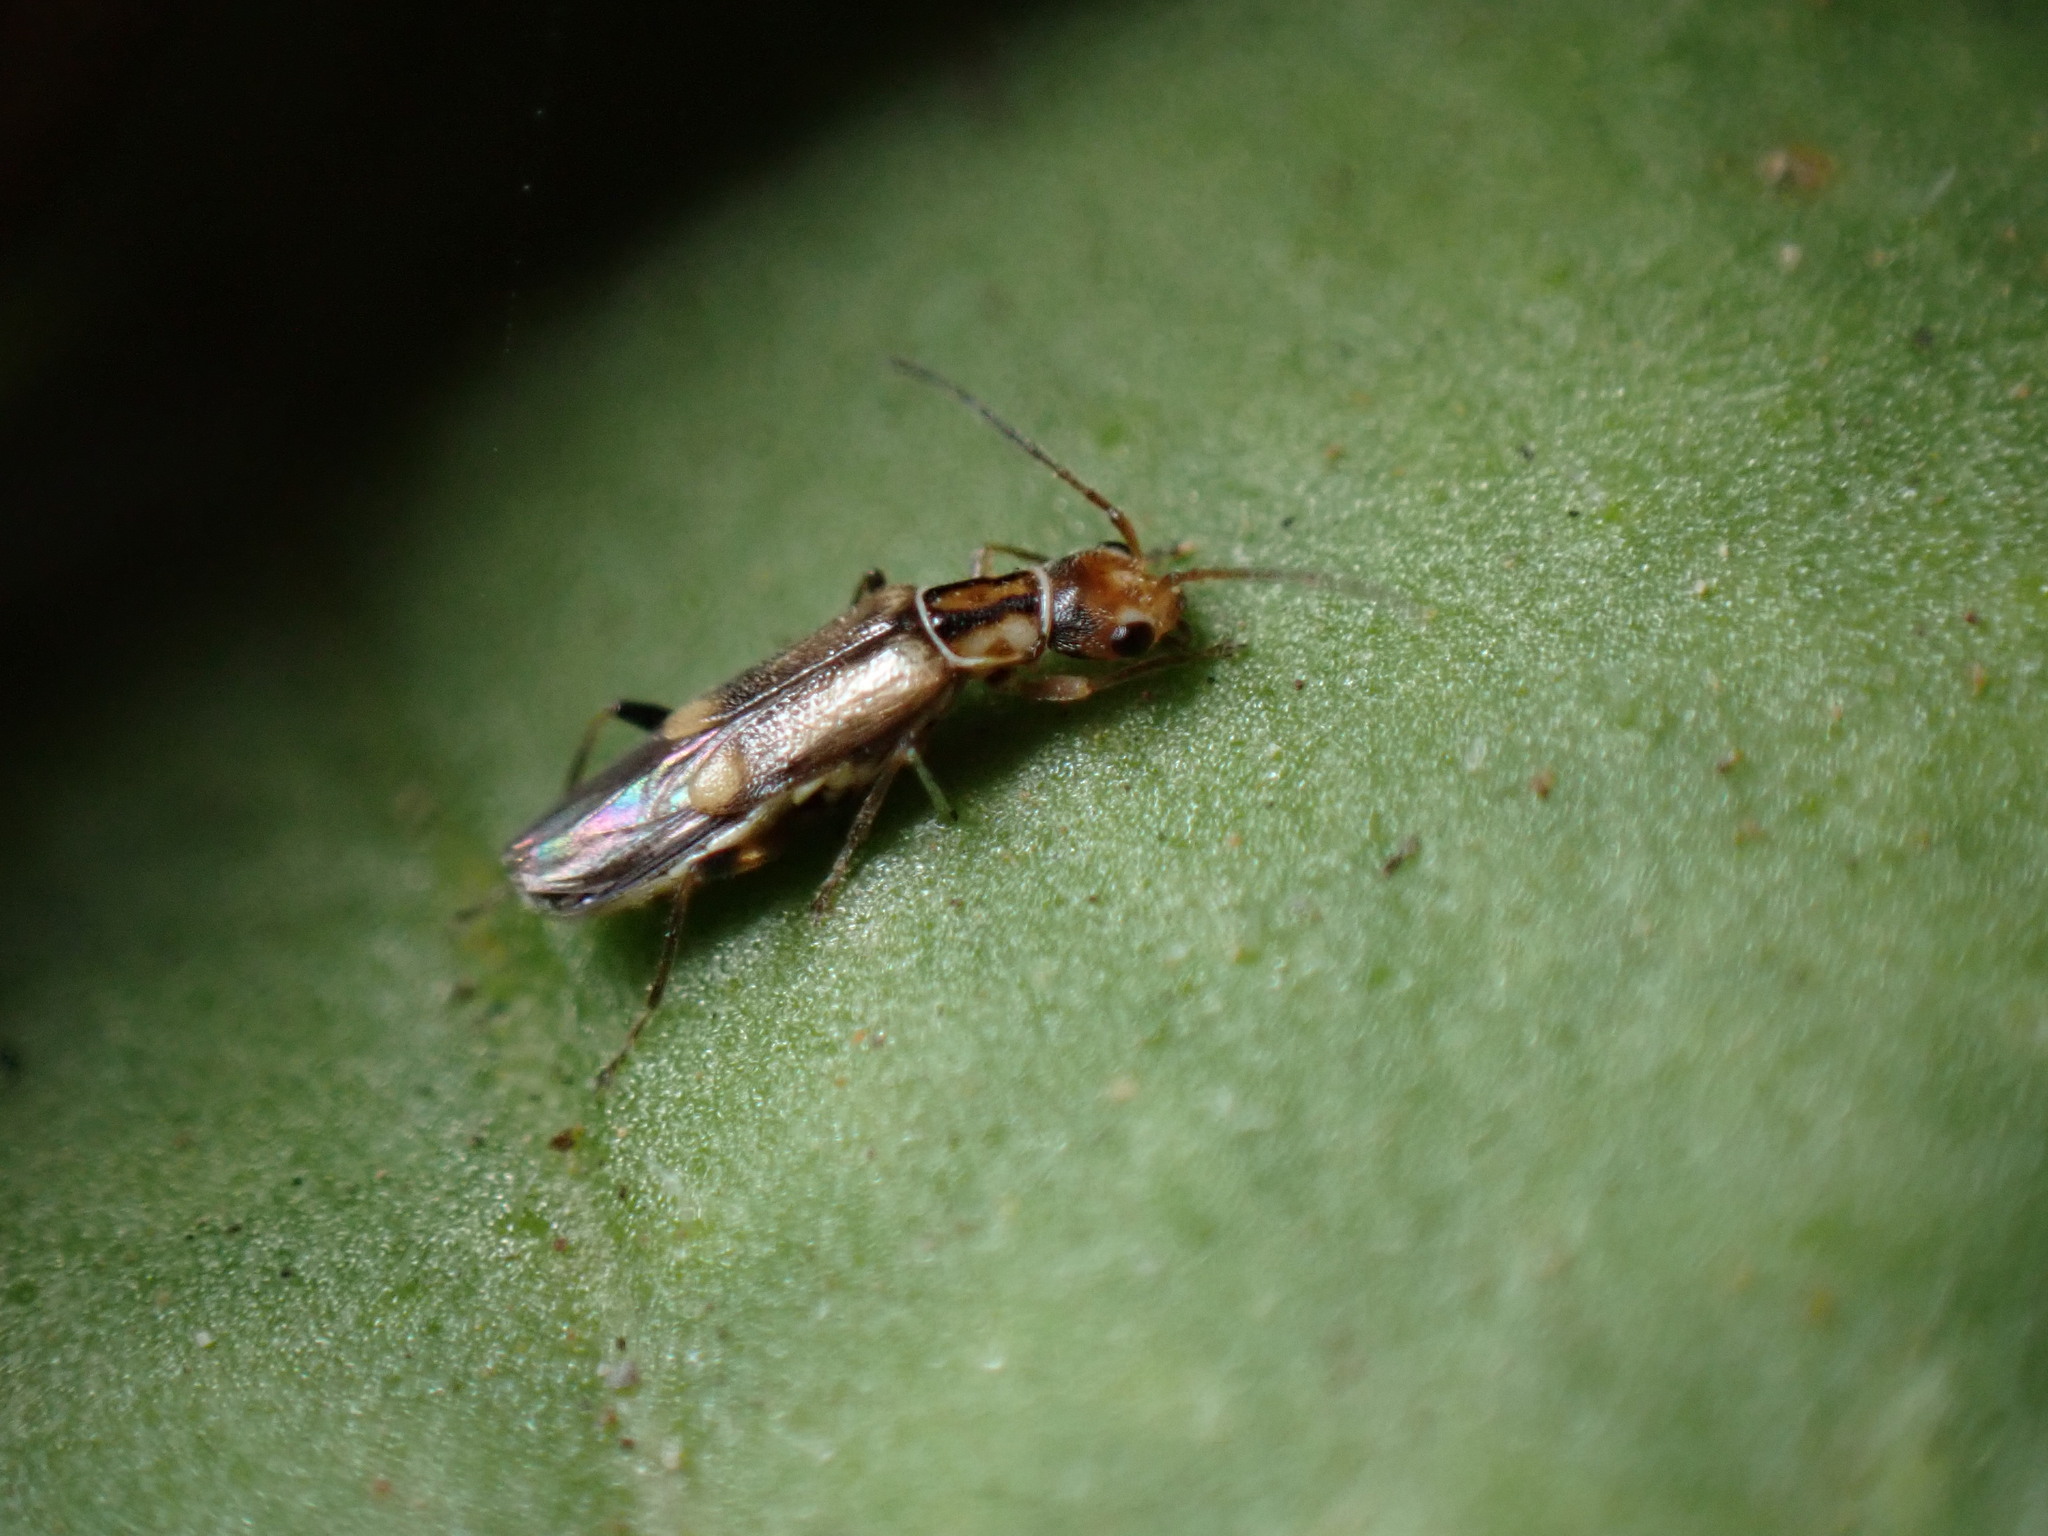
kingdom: Animalia
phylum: Arthropoda
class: Insecta
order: Coleoptera
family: Cantharidae
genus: Malthinus
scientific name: Malthinus mutabilis
